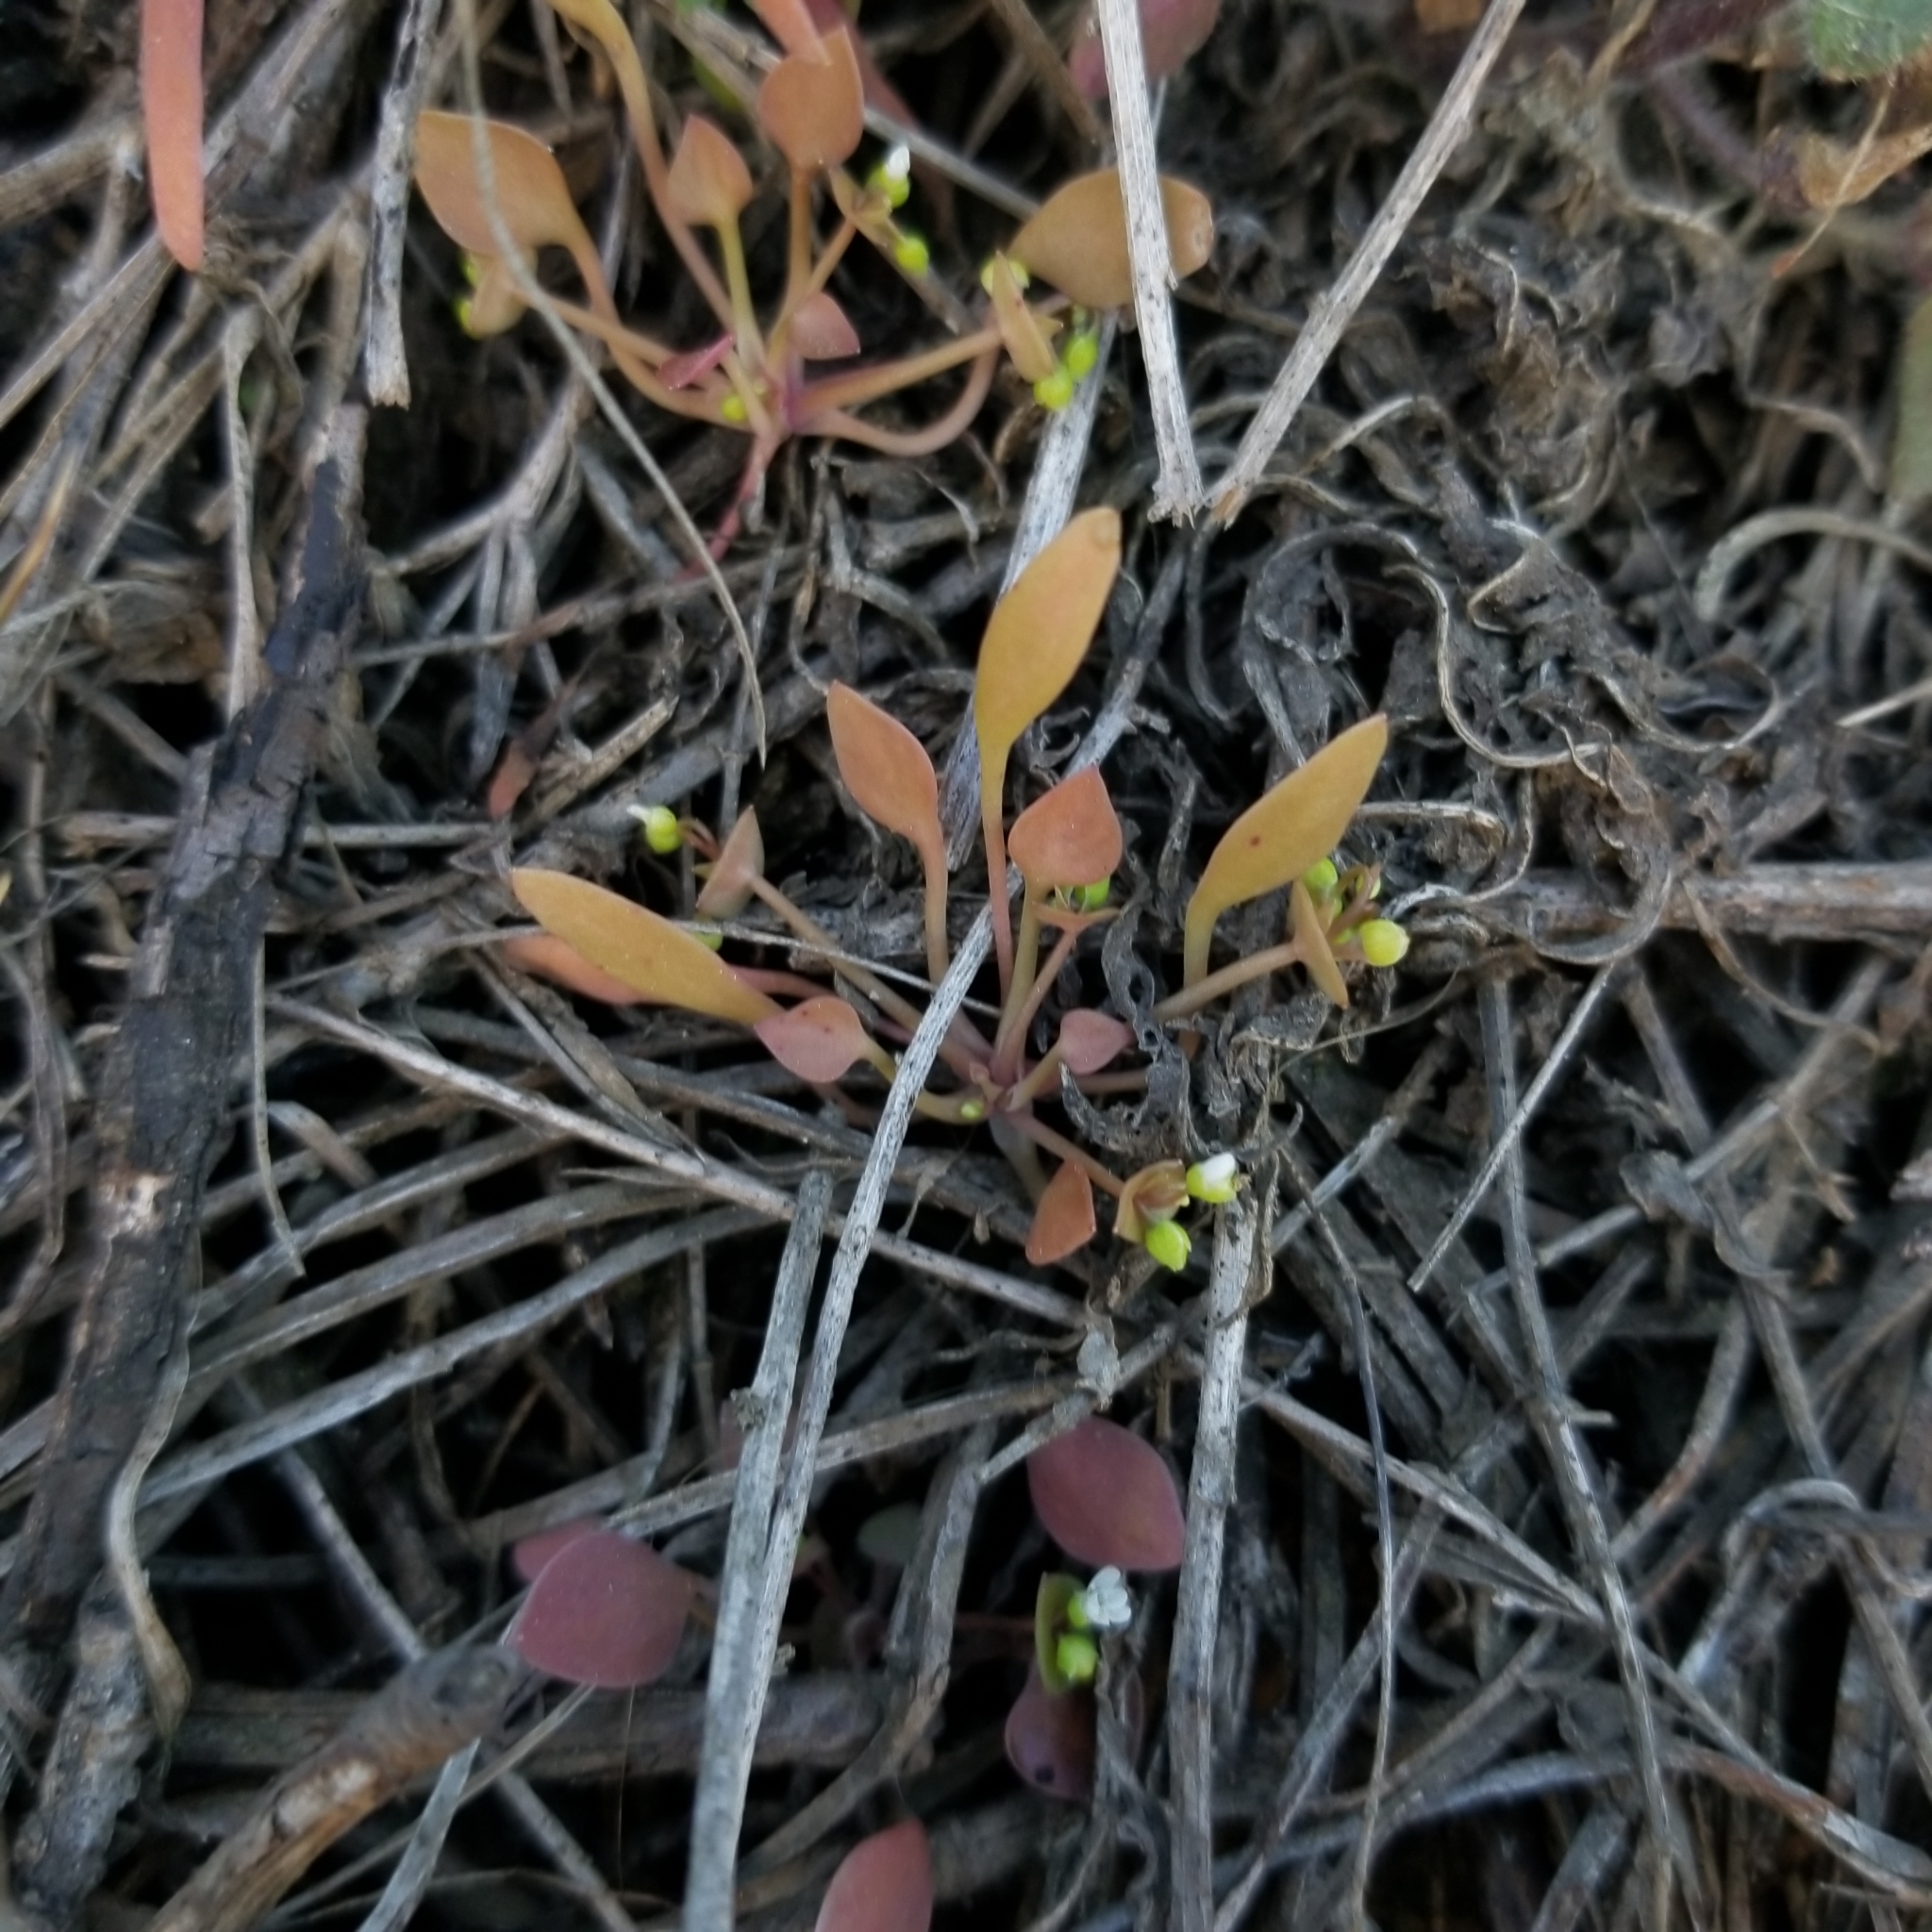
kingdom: Plantae
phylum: Tracheophyta
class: Magnoliopsida
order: Caryophyllales
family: Montiaceae
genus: Claytonia
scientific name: Claytonia perfoliata
